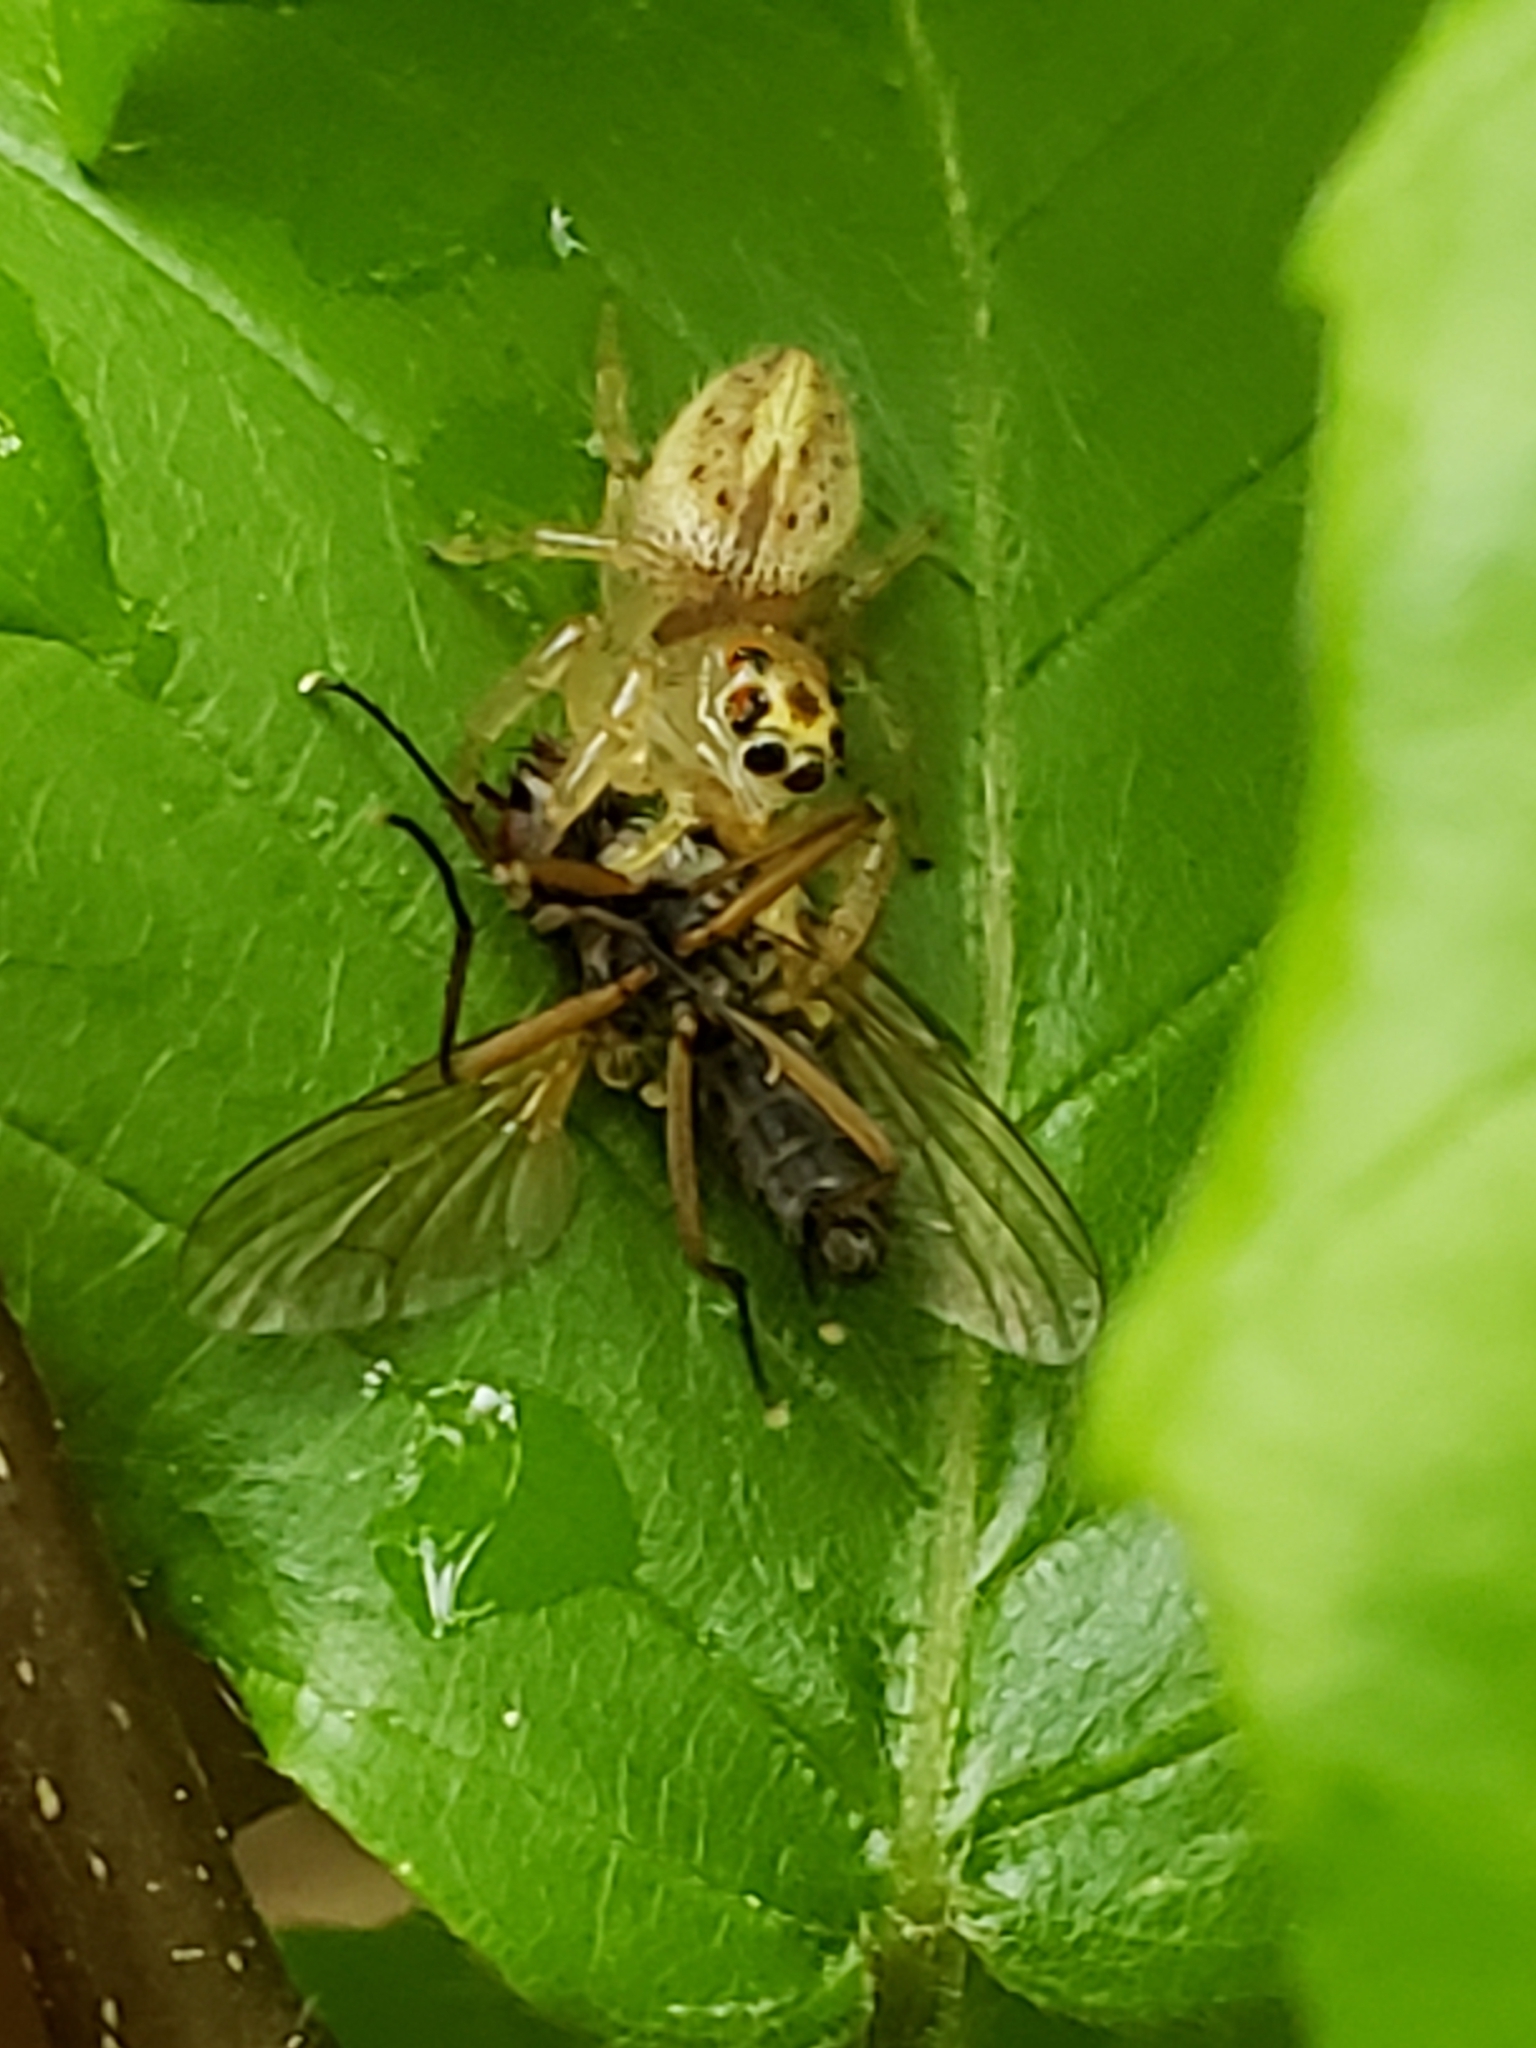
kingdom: Animalia
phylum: Arthropoda
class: Arachnida
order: Araneae
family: Salticidae
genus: Colonus
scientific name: Colonus sylvanus
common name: Jumping spiders
